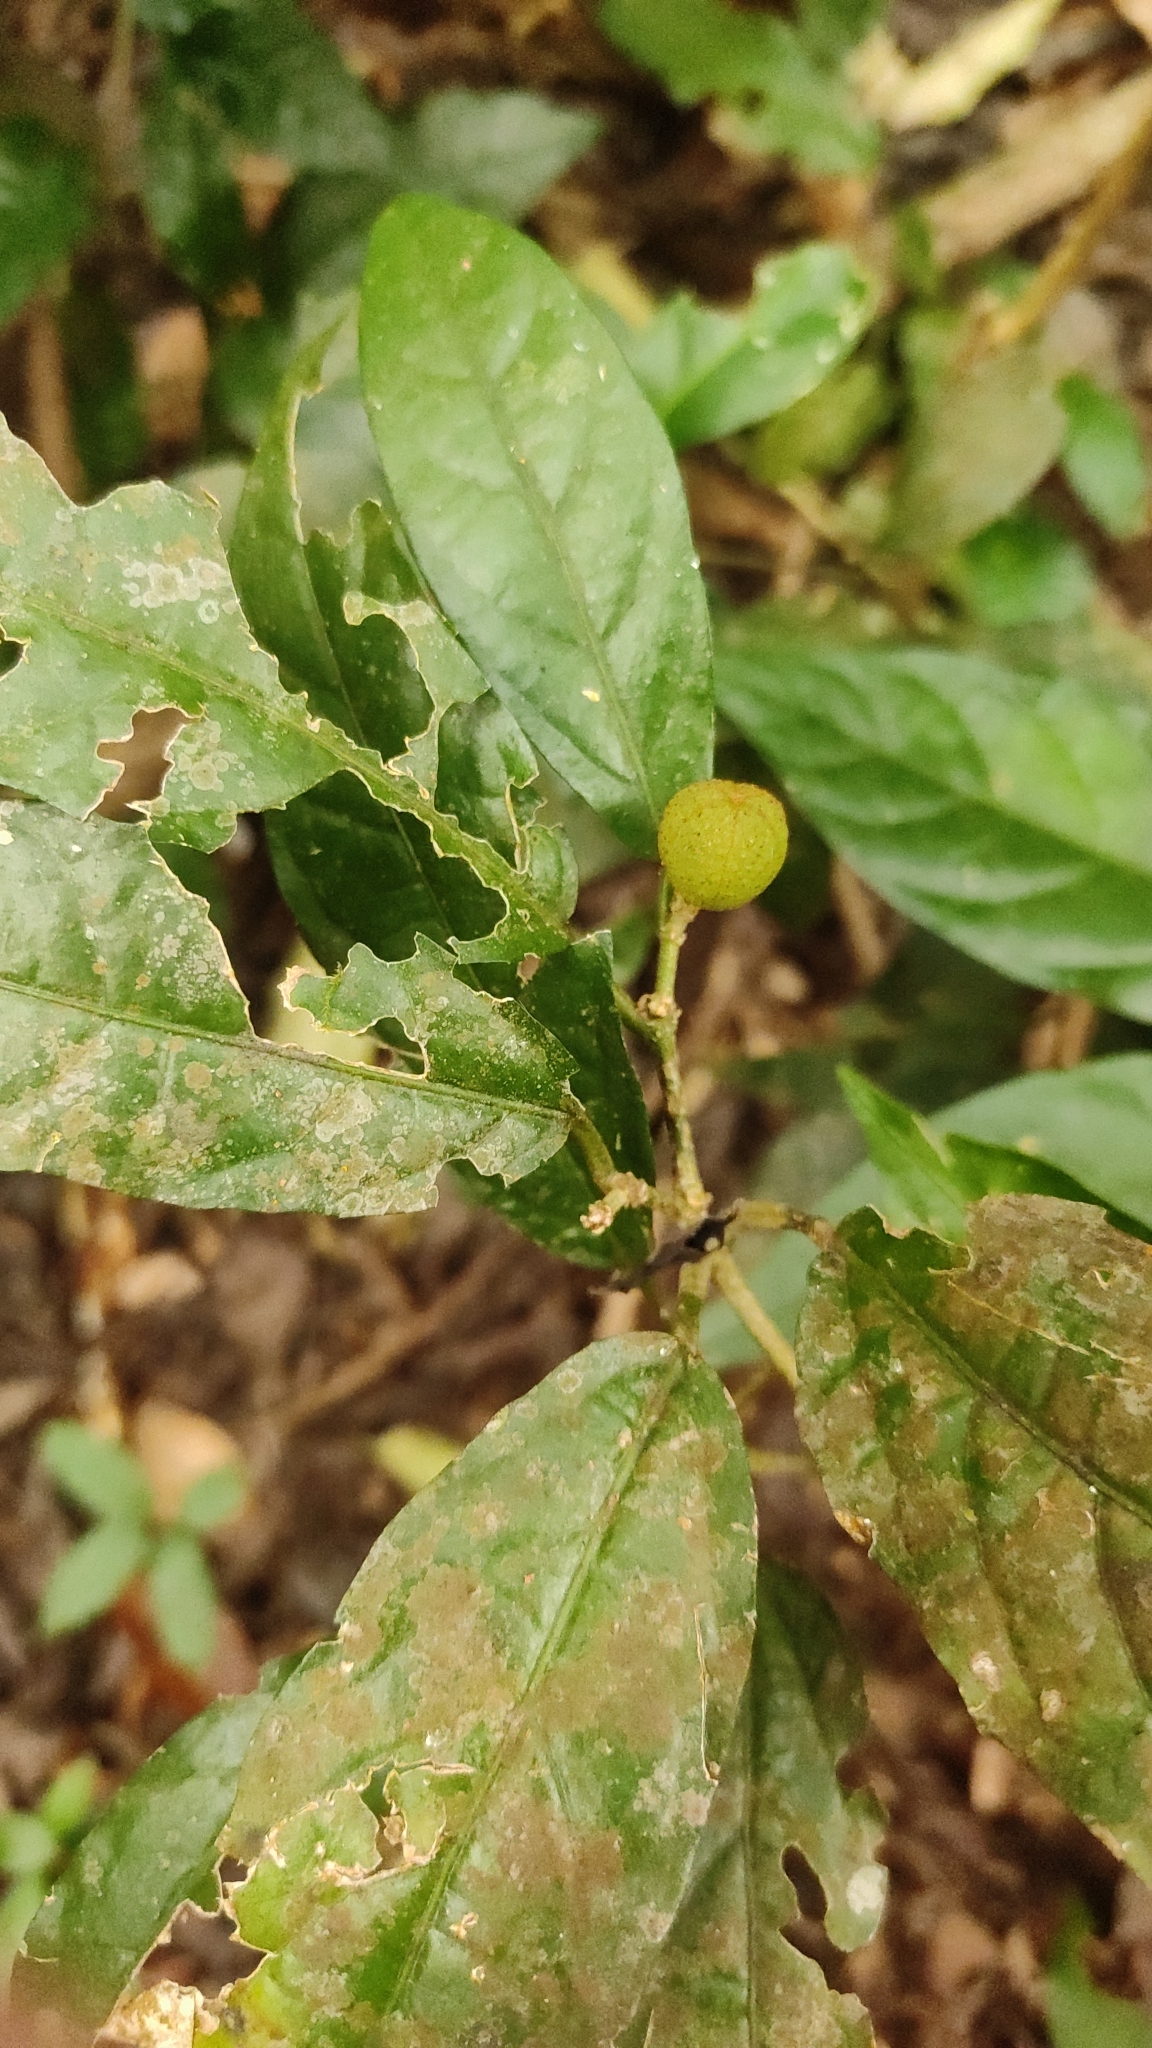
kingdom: Plantae
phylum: Tracheophyta
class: Magnoliopsida
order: Malpighiales
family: Euphorbiaceae
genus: Croton
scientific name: Croton zeylanicus
